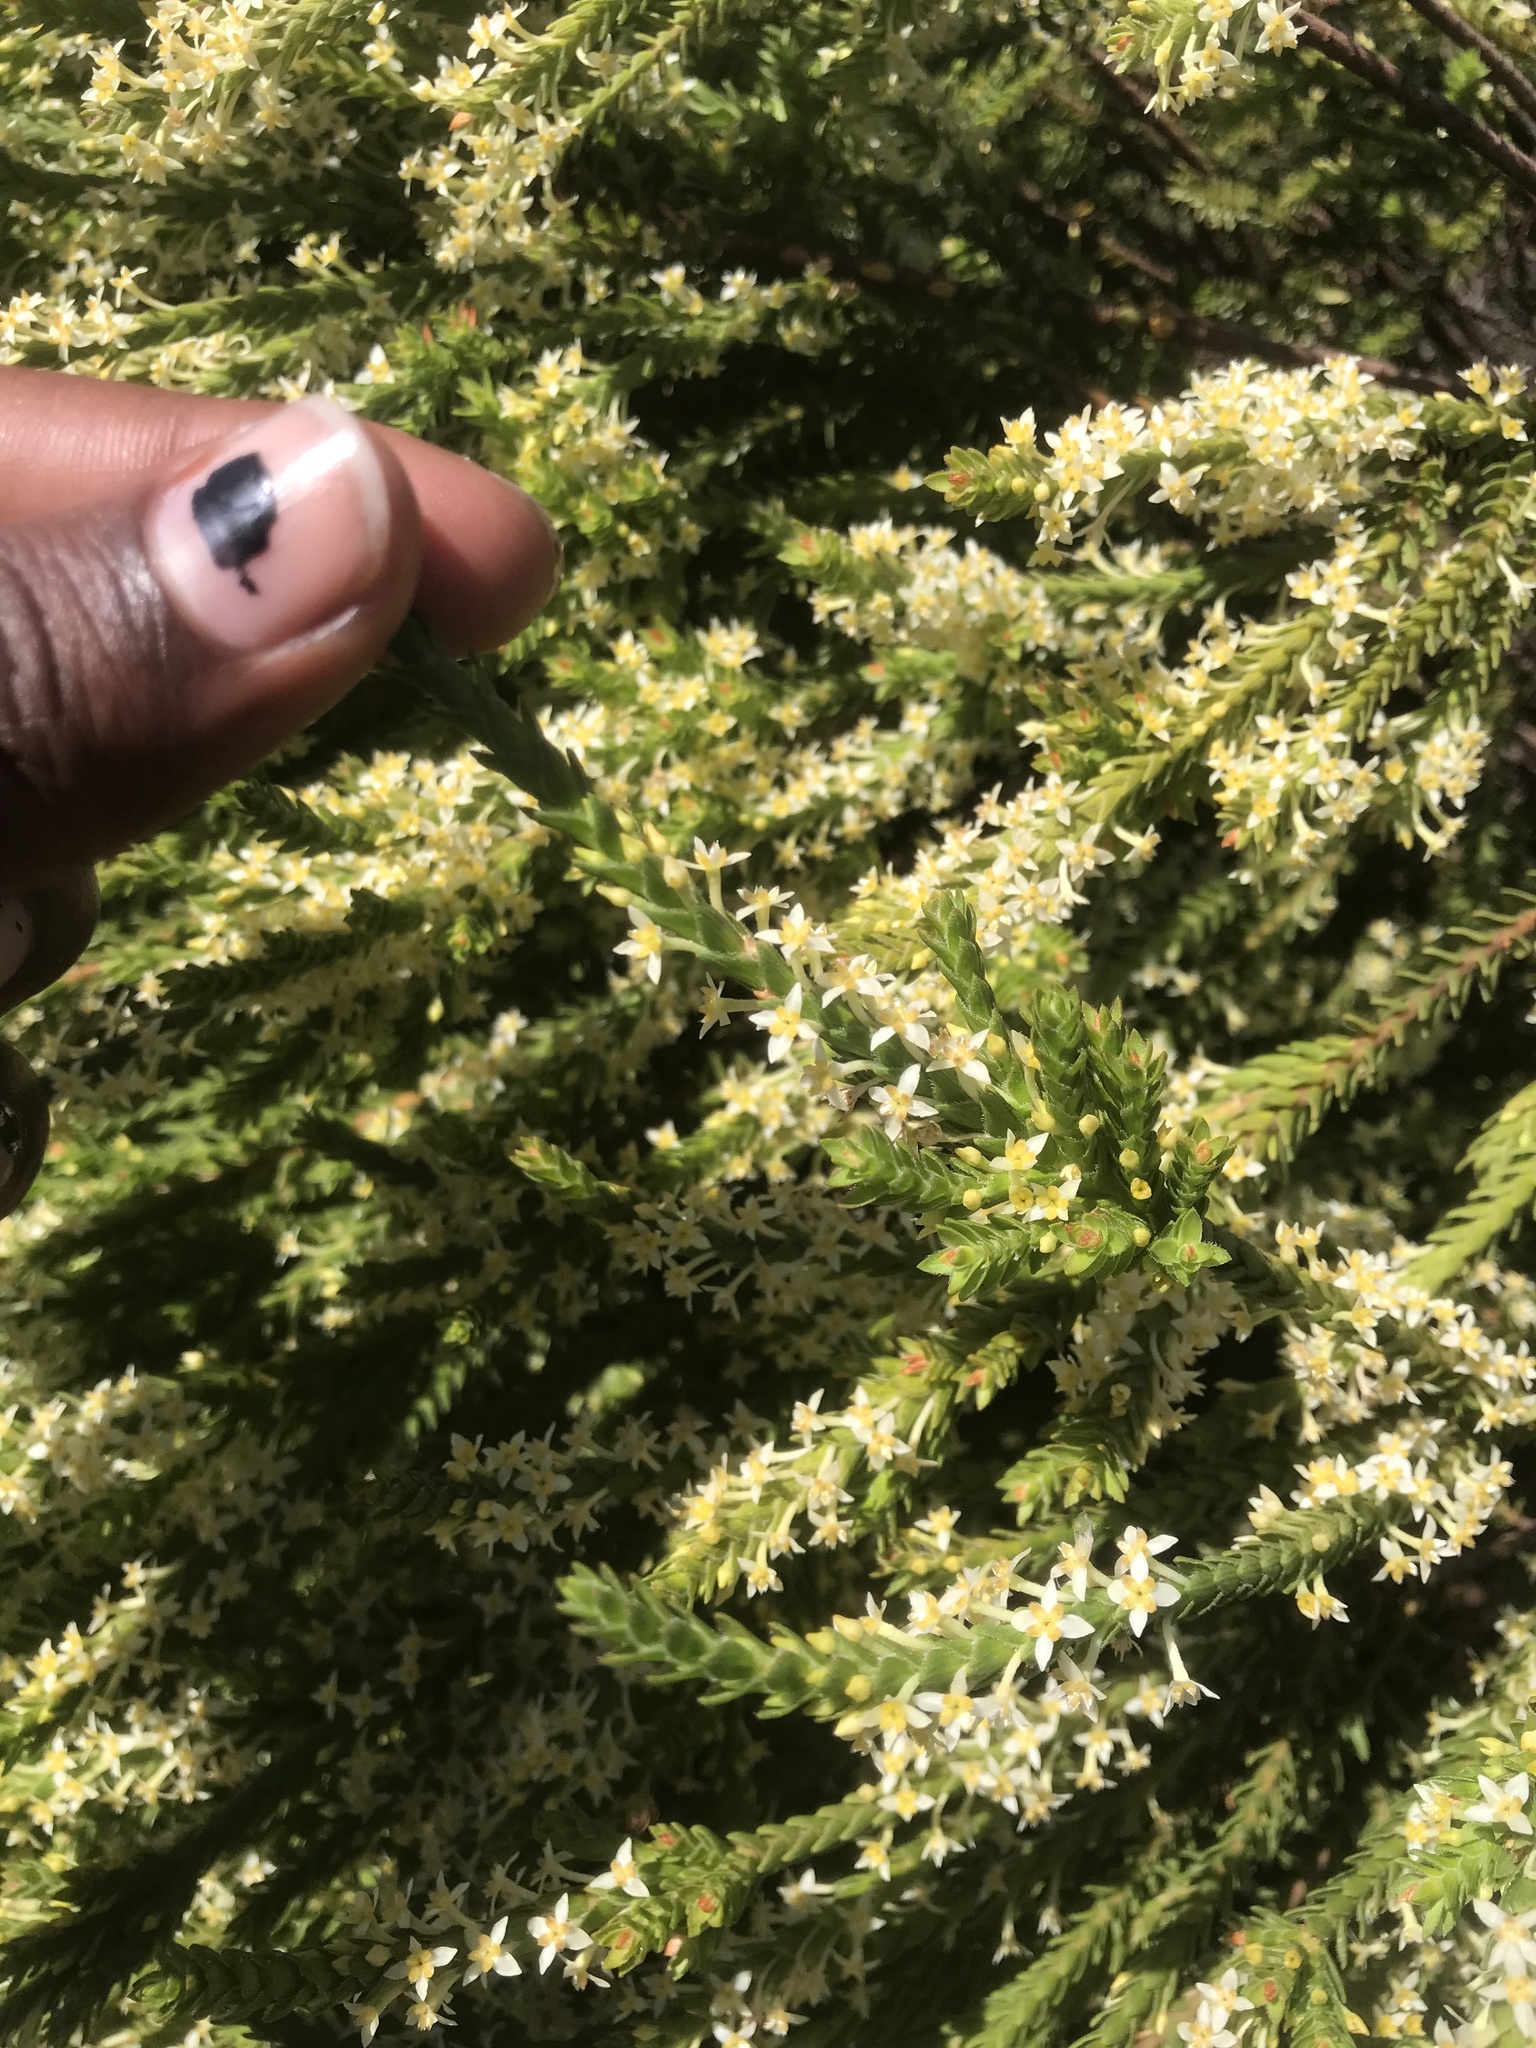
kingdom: Plantae
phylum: Tracheophyta
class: Magnoliopsida
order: Malvales
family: Thymelaeaceae
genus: Struthiola
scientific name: Struthiola striata
